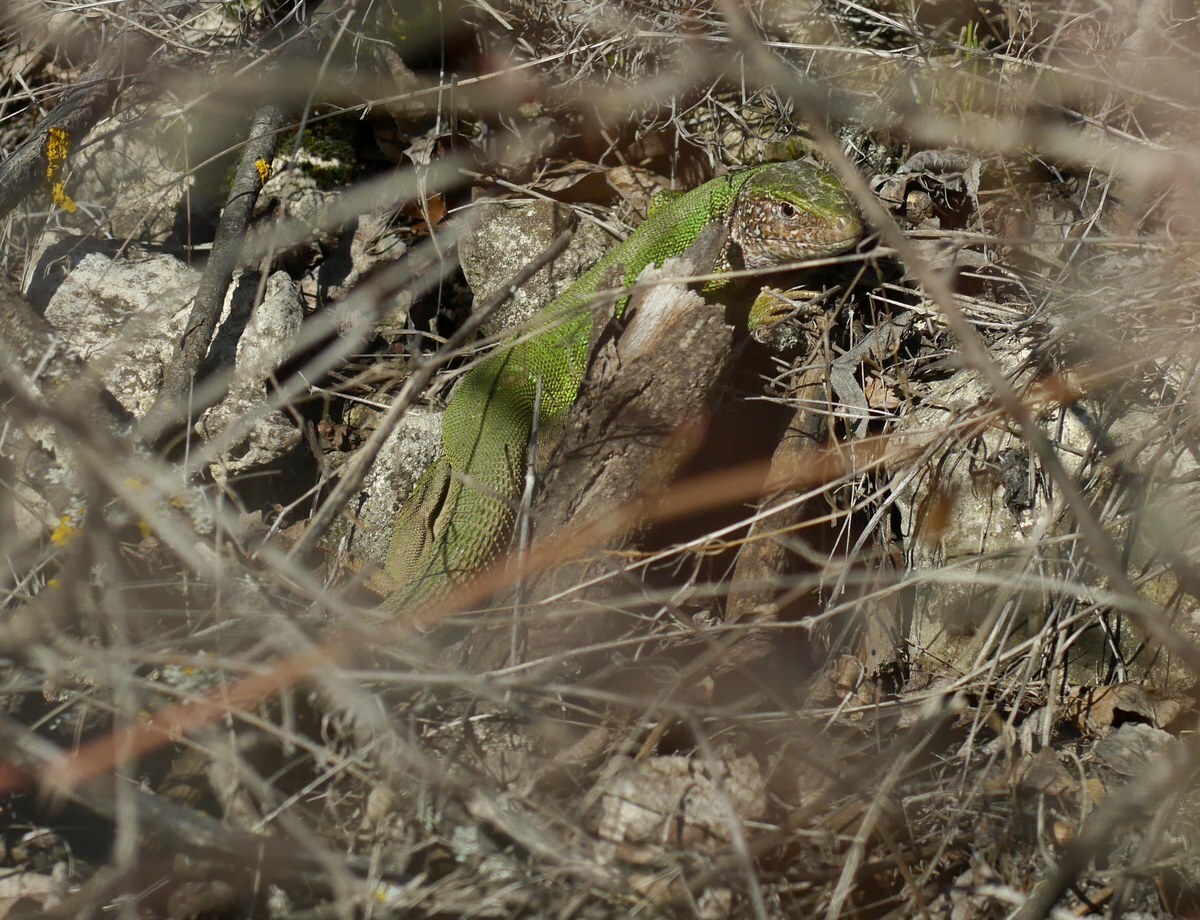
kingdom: Animalia
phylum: Chordata
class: Squamata
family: Lacertidae
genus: Lacerta
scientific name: Lacerta viridis
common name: European green lizard
